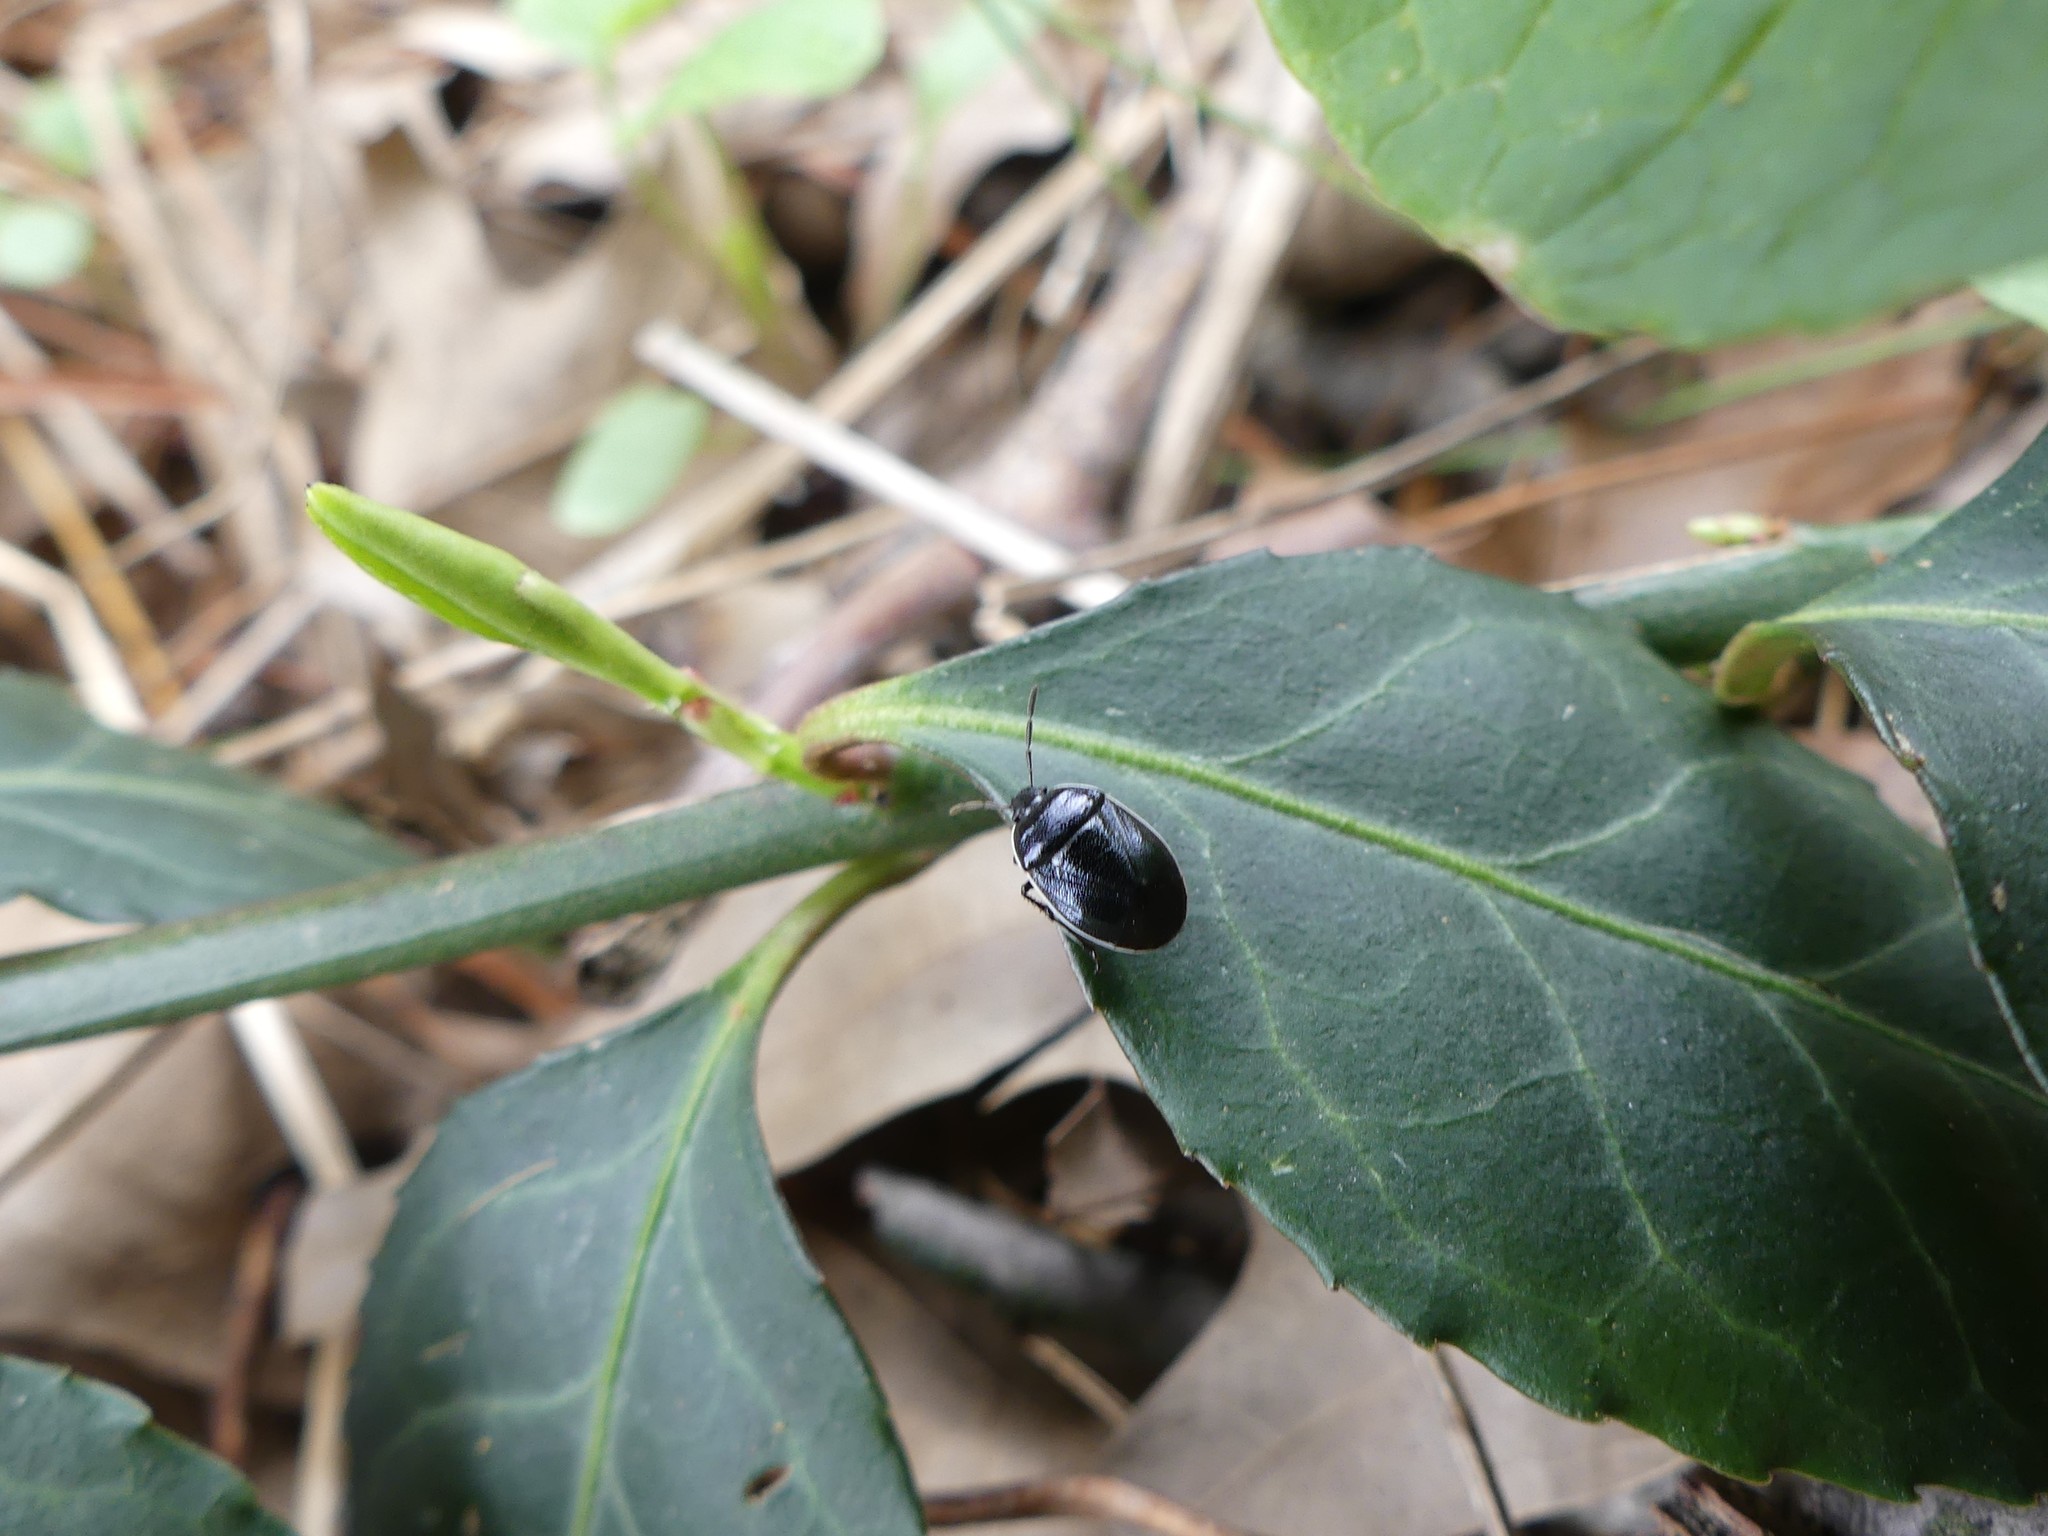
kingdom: Animalia
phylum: Arthropoda
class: Insecta
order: Hemiptera
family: Cydnidae
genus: Sehirus
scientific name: Sehirus cinctus
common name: White-margined burrower bug
